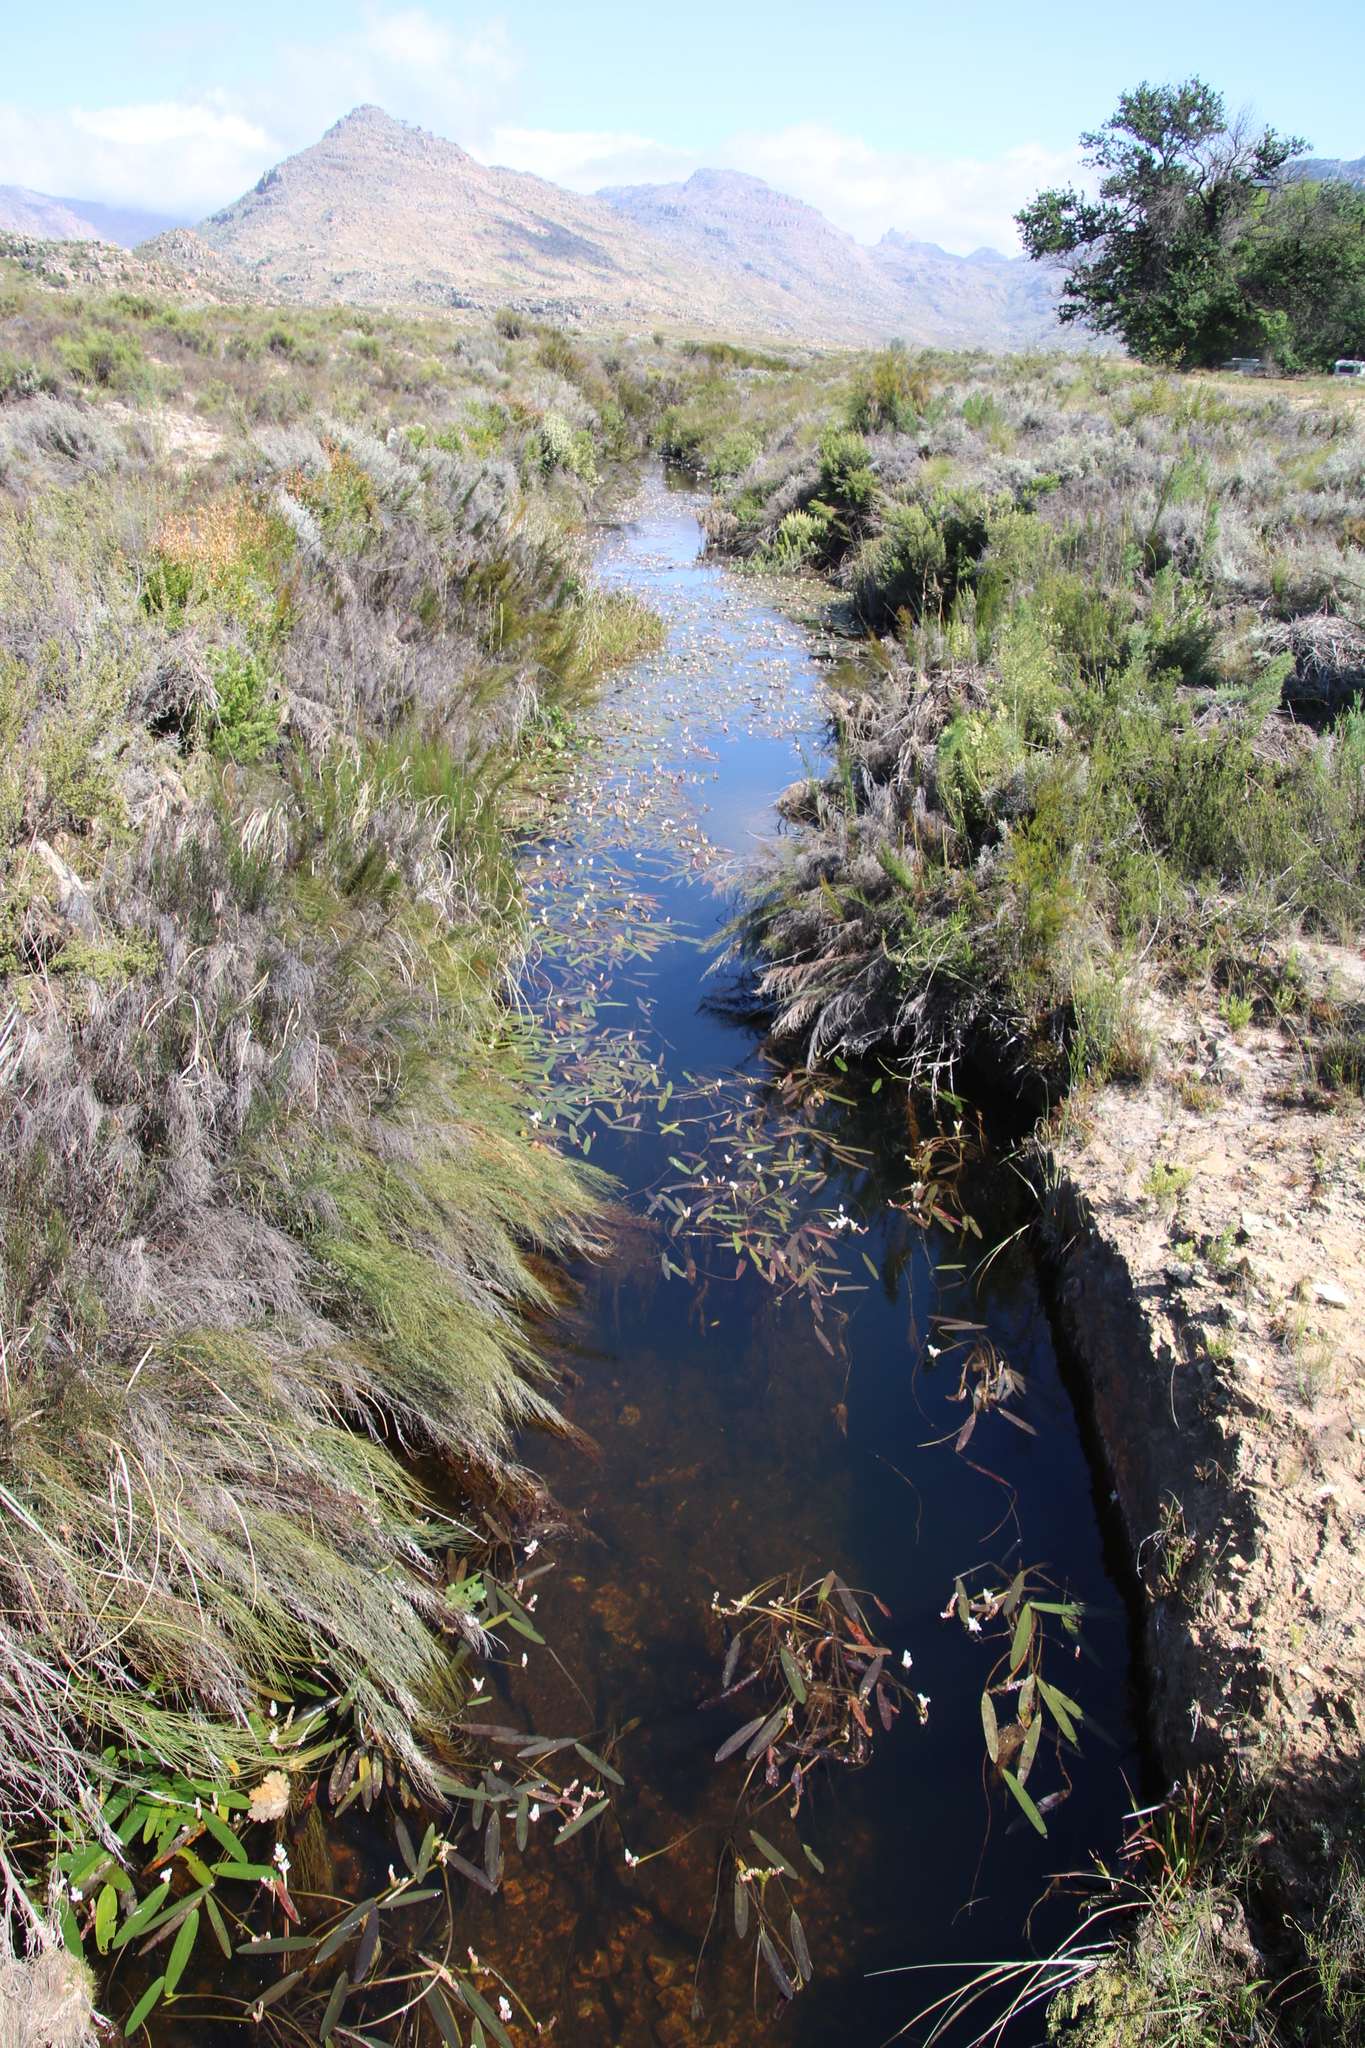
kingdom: Plantae
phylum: Tracheophyta
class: Liliopsida
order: Alismatales
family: Aponogetonaceae
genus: Aponogeton
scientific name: Aponogeton distachyos
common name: Cape-pondweed
